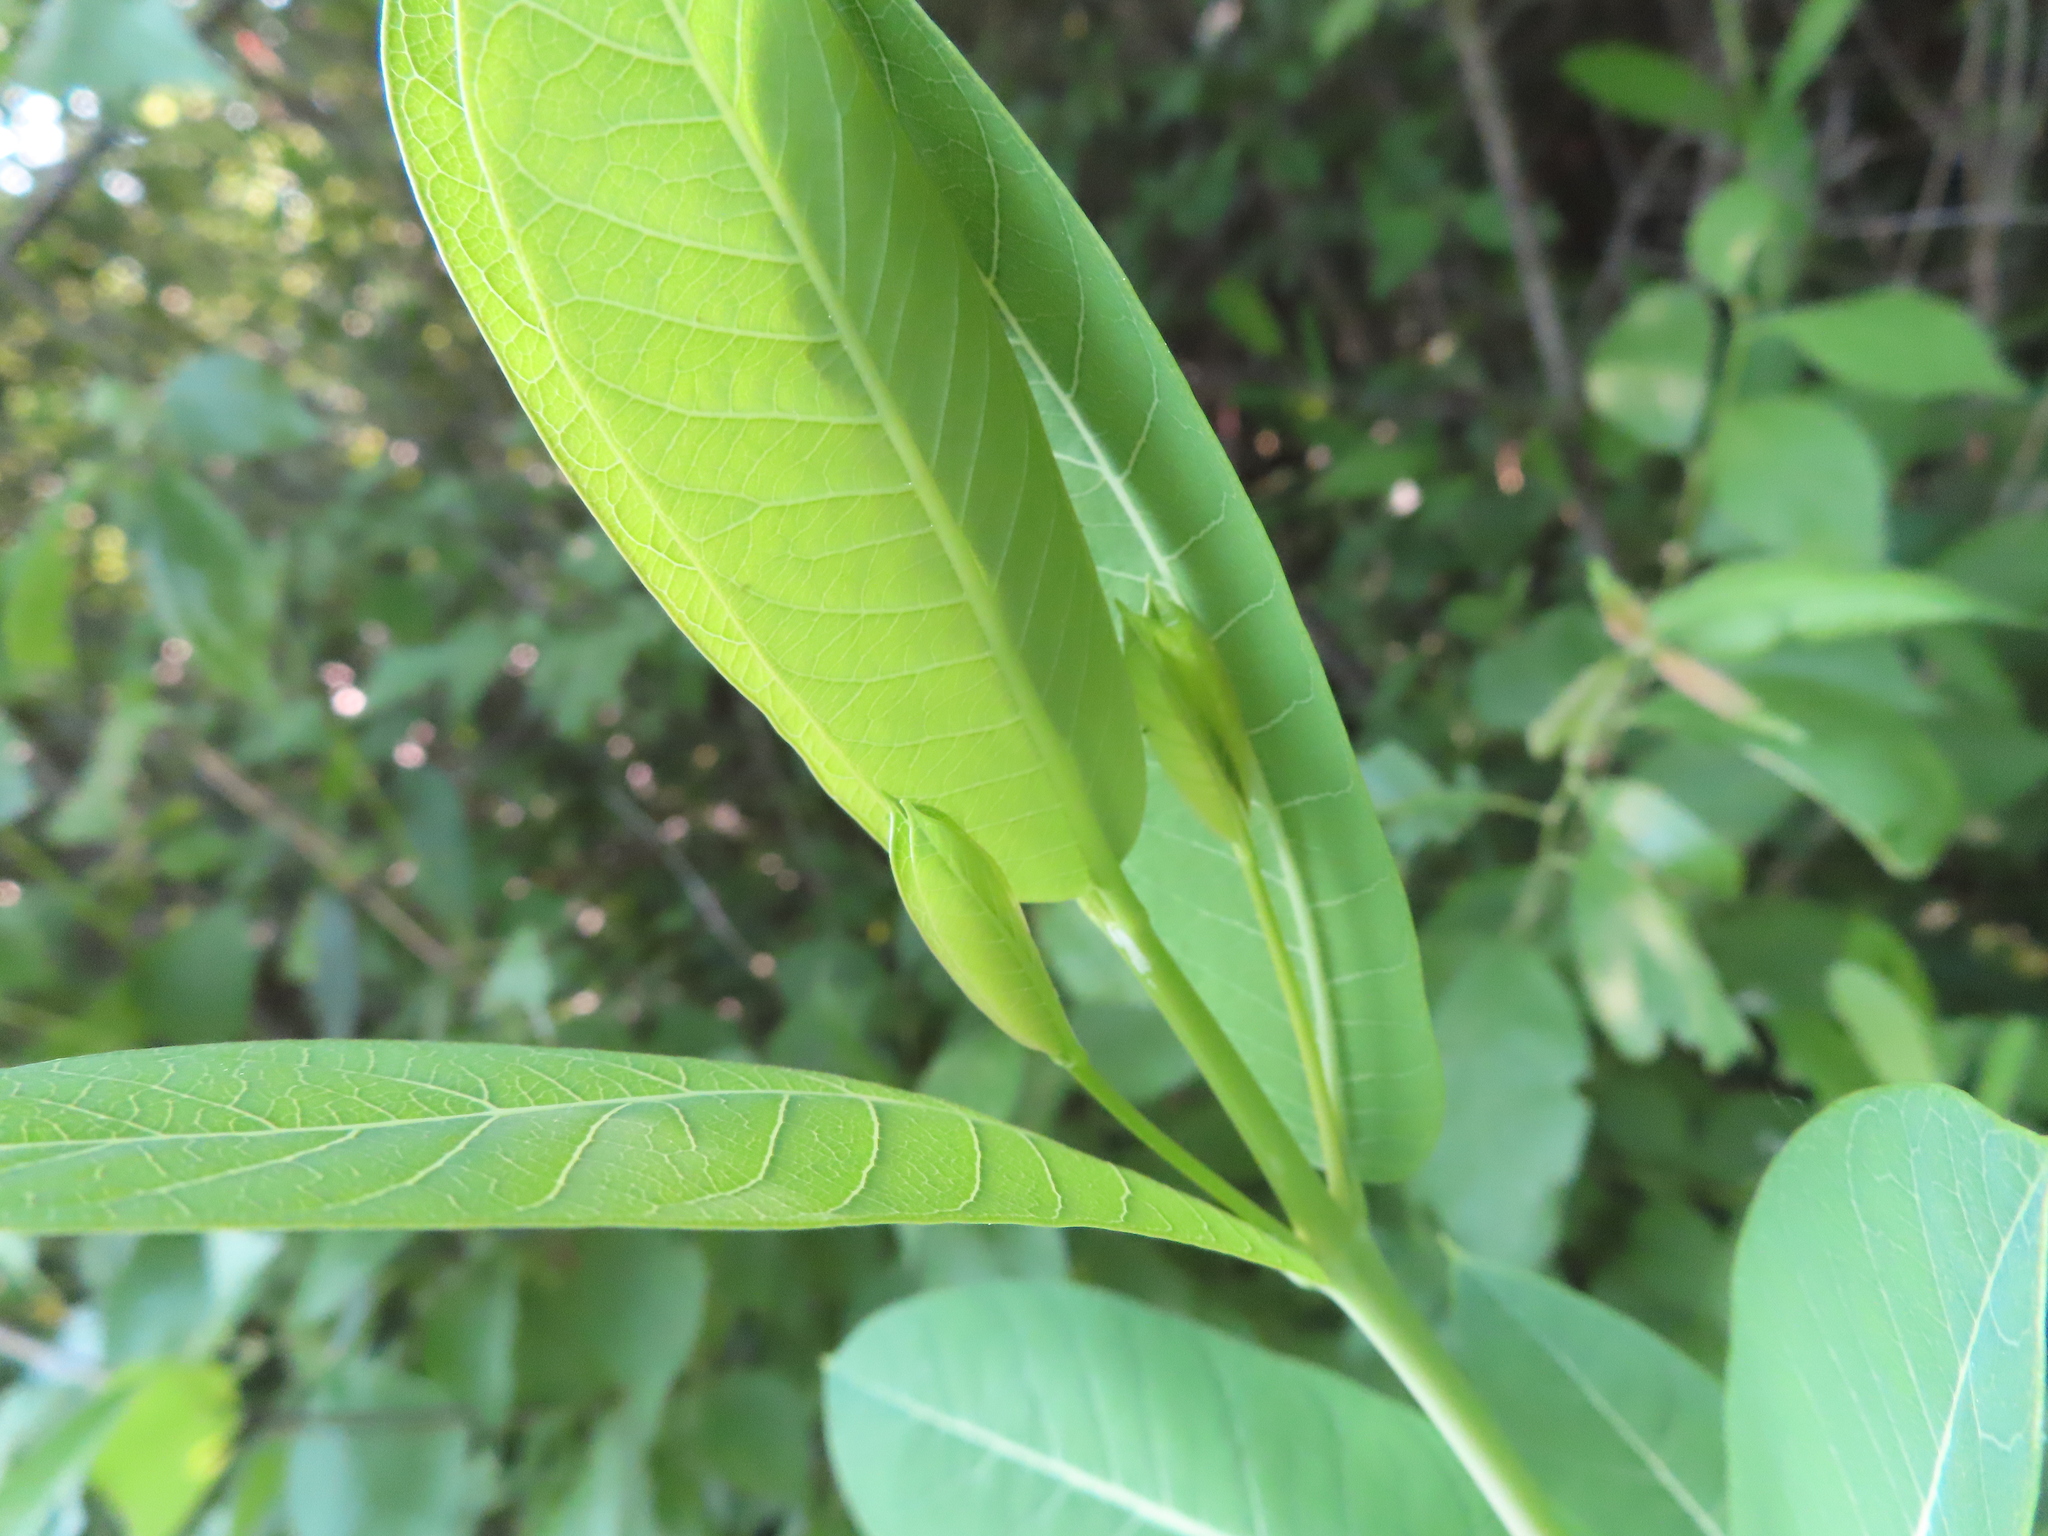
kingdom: Plantae
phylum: Tracheophyta
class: Magnoliopsida
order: Gentianales
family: Apocynaceae
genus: Apocynum
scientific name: Apocynum cannabinum
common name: Hemp dogbane
